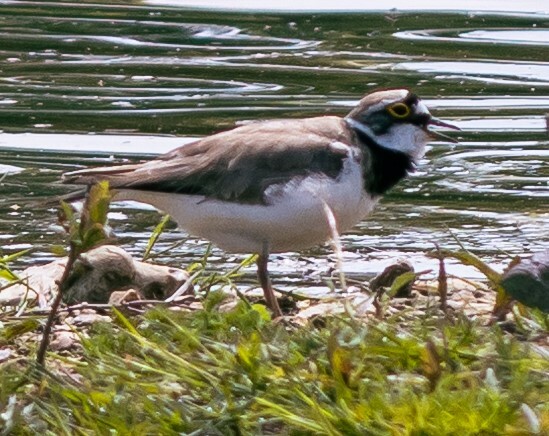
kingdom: Animalia
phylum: Chordata
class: Aves
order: Charadriiformes
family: Charadriidae
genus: Charadrius
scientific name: Charadrius dubius
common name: Little ringed plover
